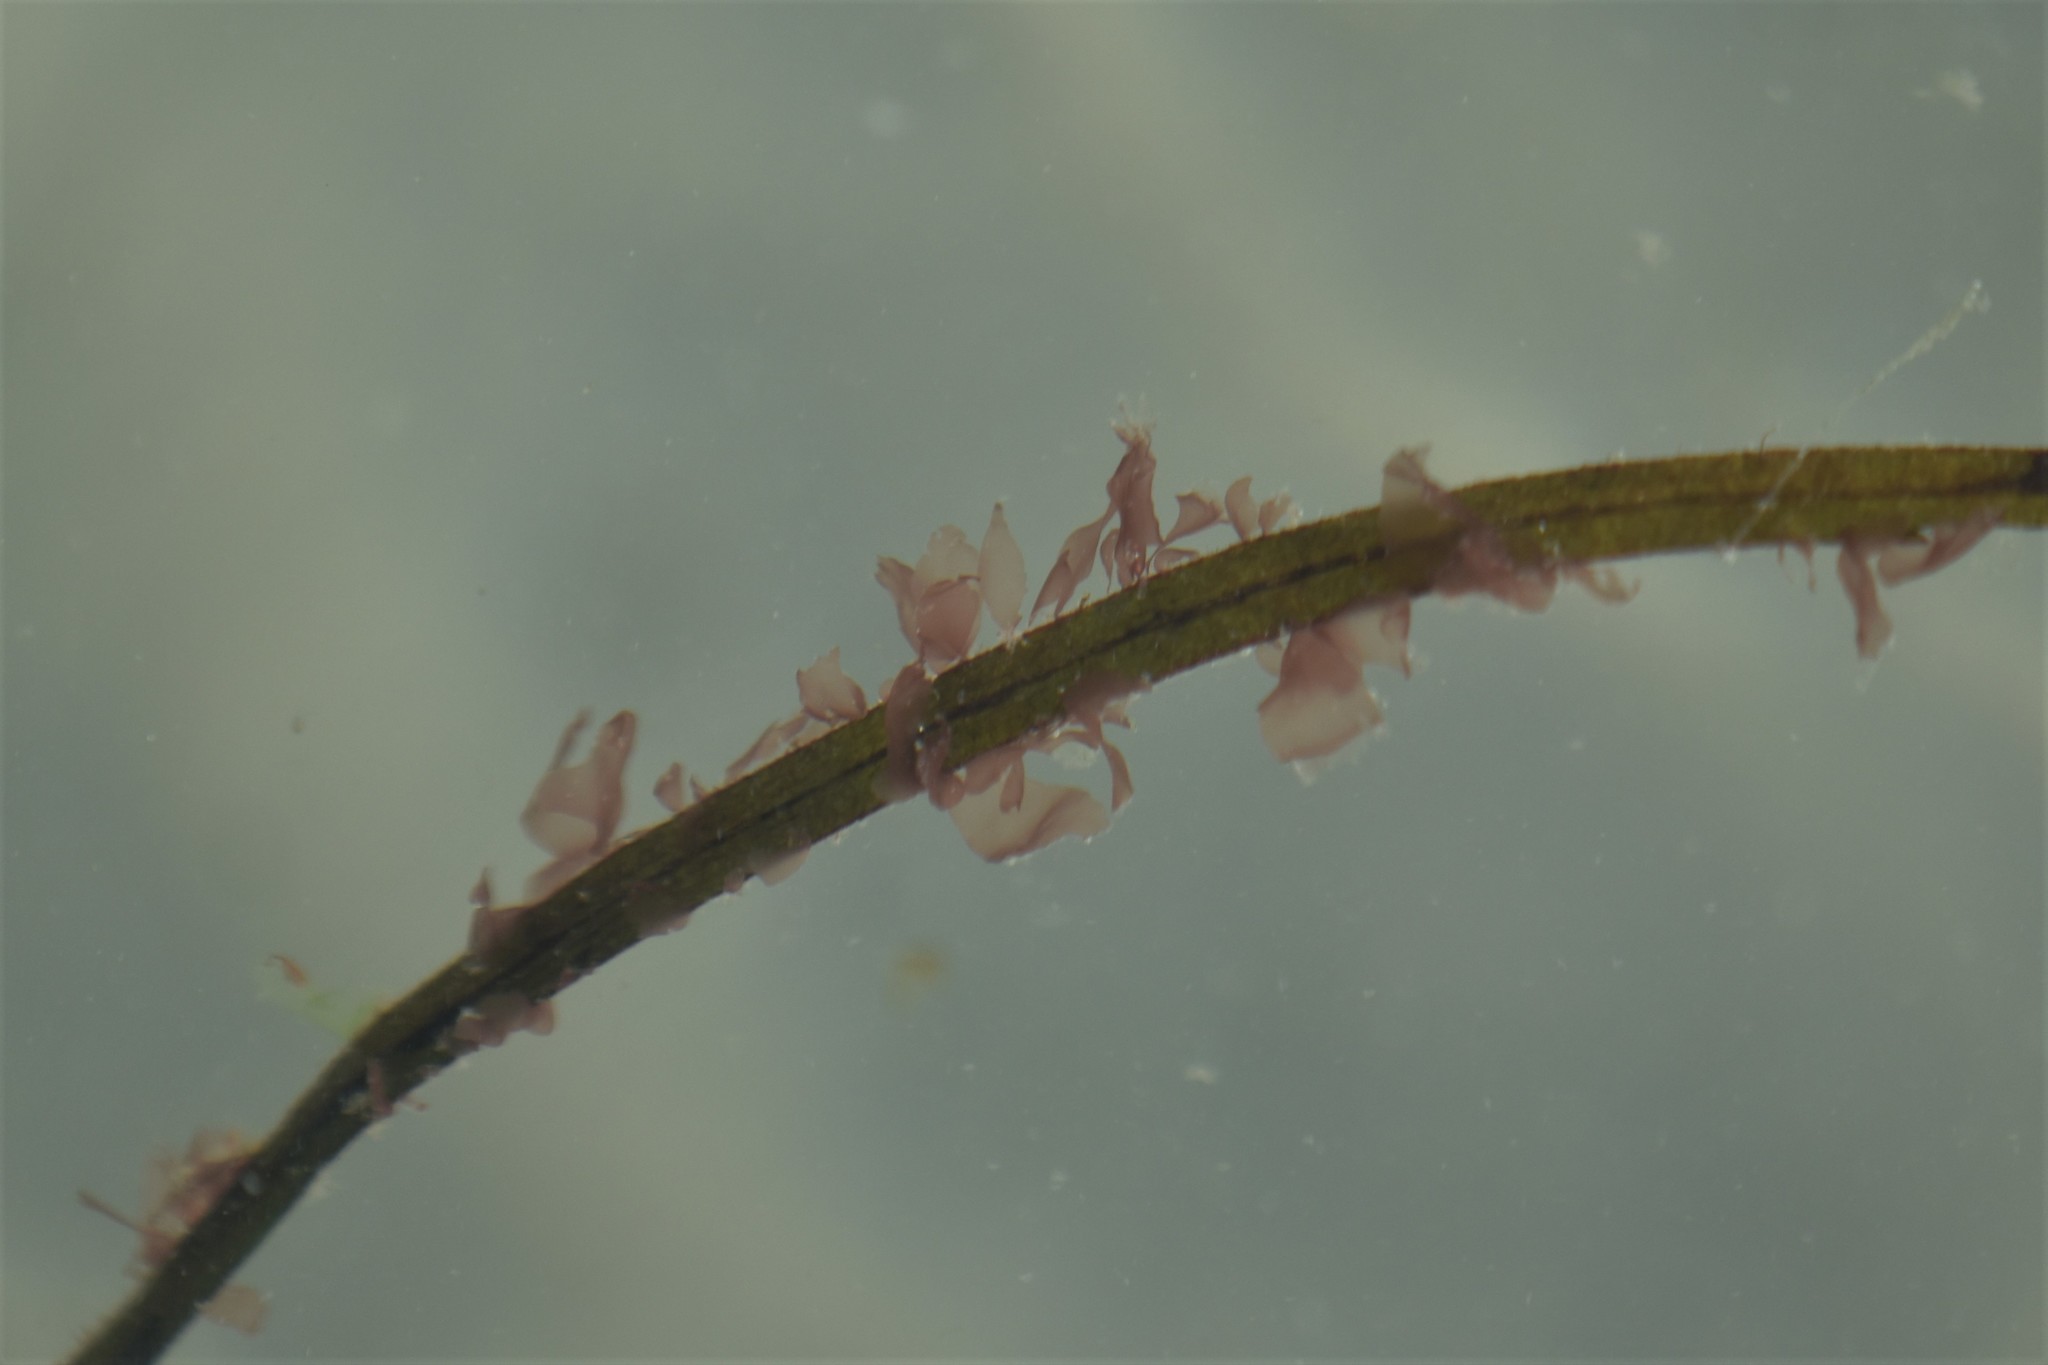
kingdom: Plantae
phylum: Rhodophyta
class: Compsopogonophyceae
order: Erythropeltidales
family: Erythrotrichiaceae
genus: Smithora
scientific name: Smithora naiadum
